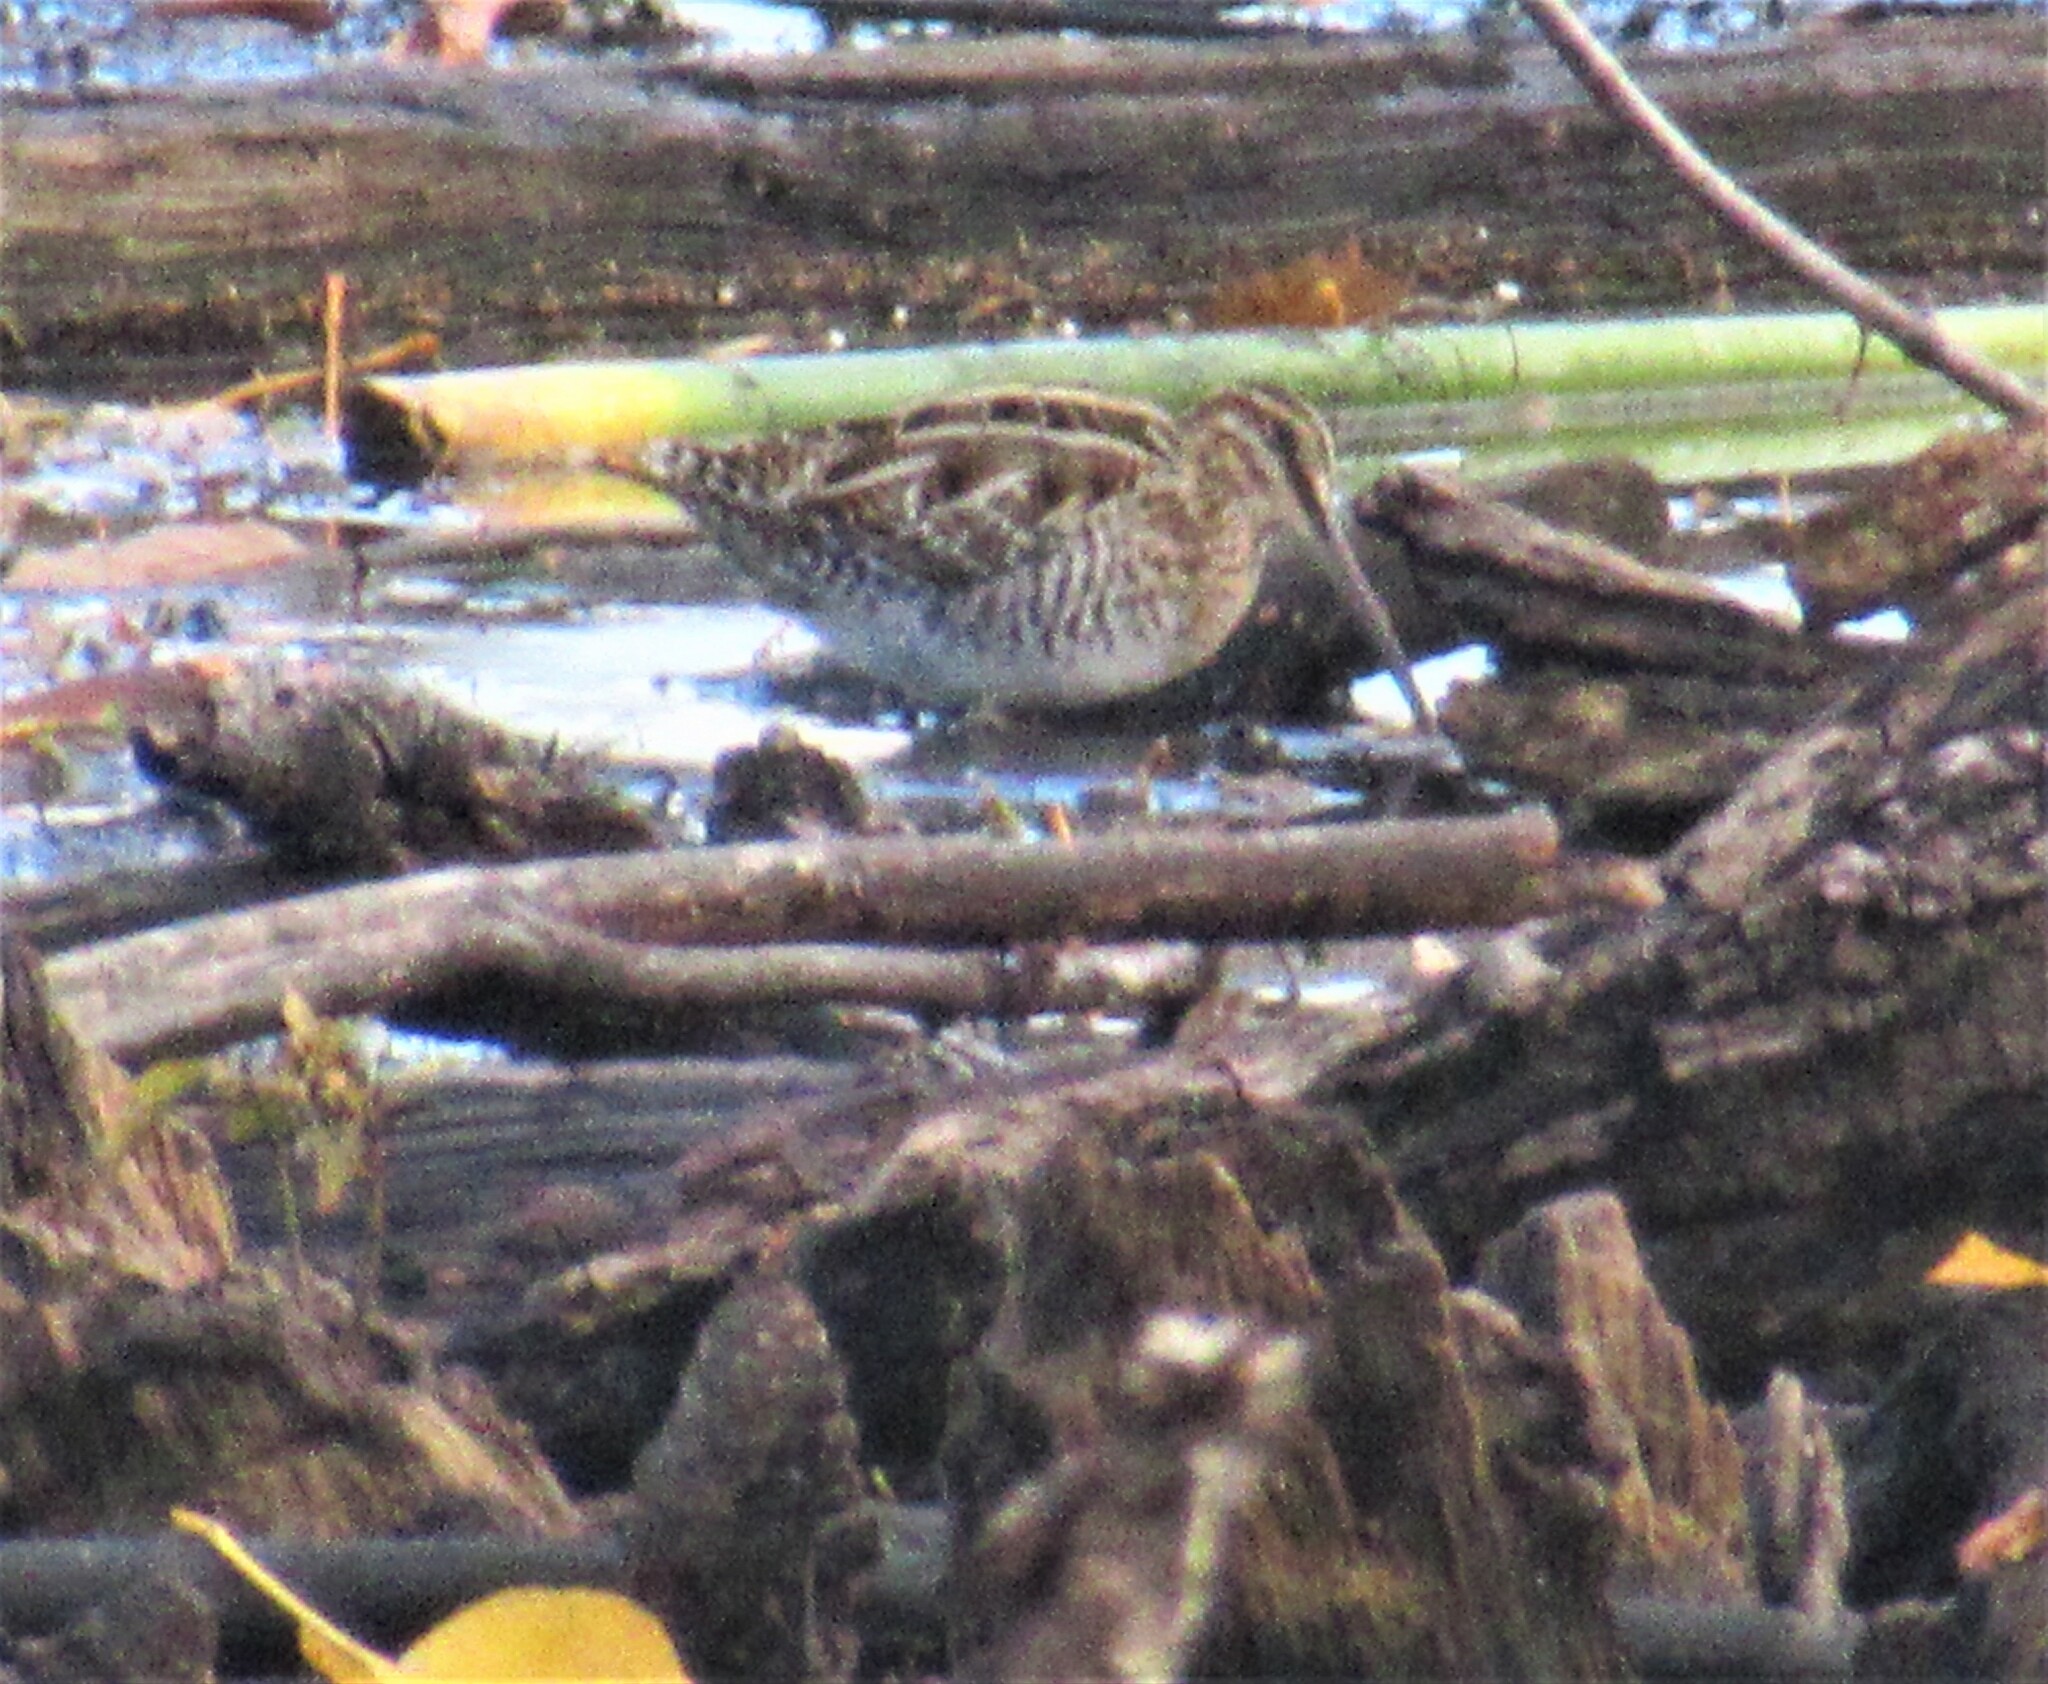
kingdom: Animalia
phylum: Chordata
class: Aves
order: Charadriiformes
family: Scolopacidae
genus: Gallinago
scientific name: Gallinago delicata
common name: Wilson's snipe
